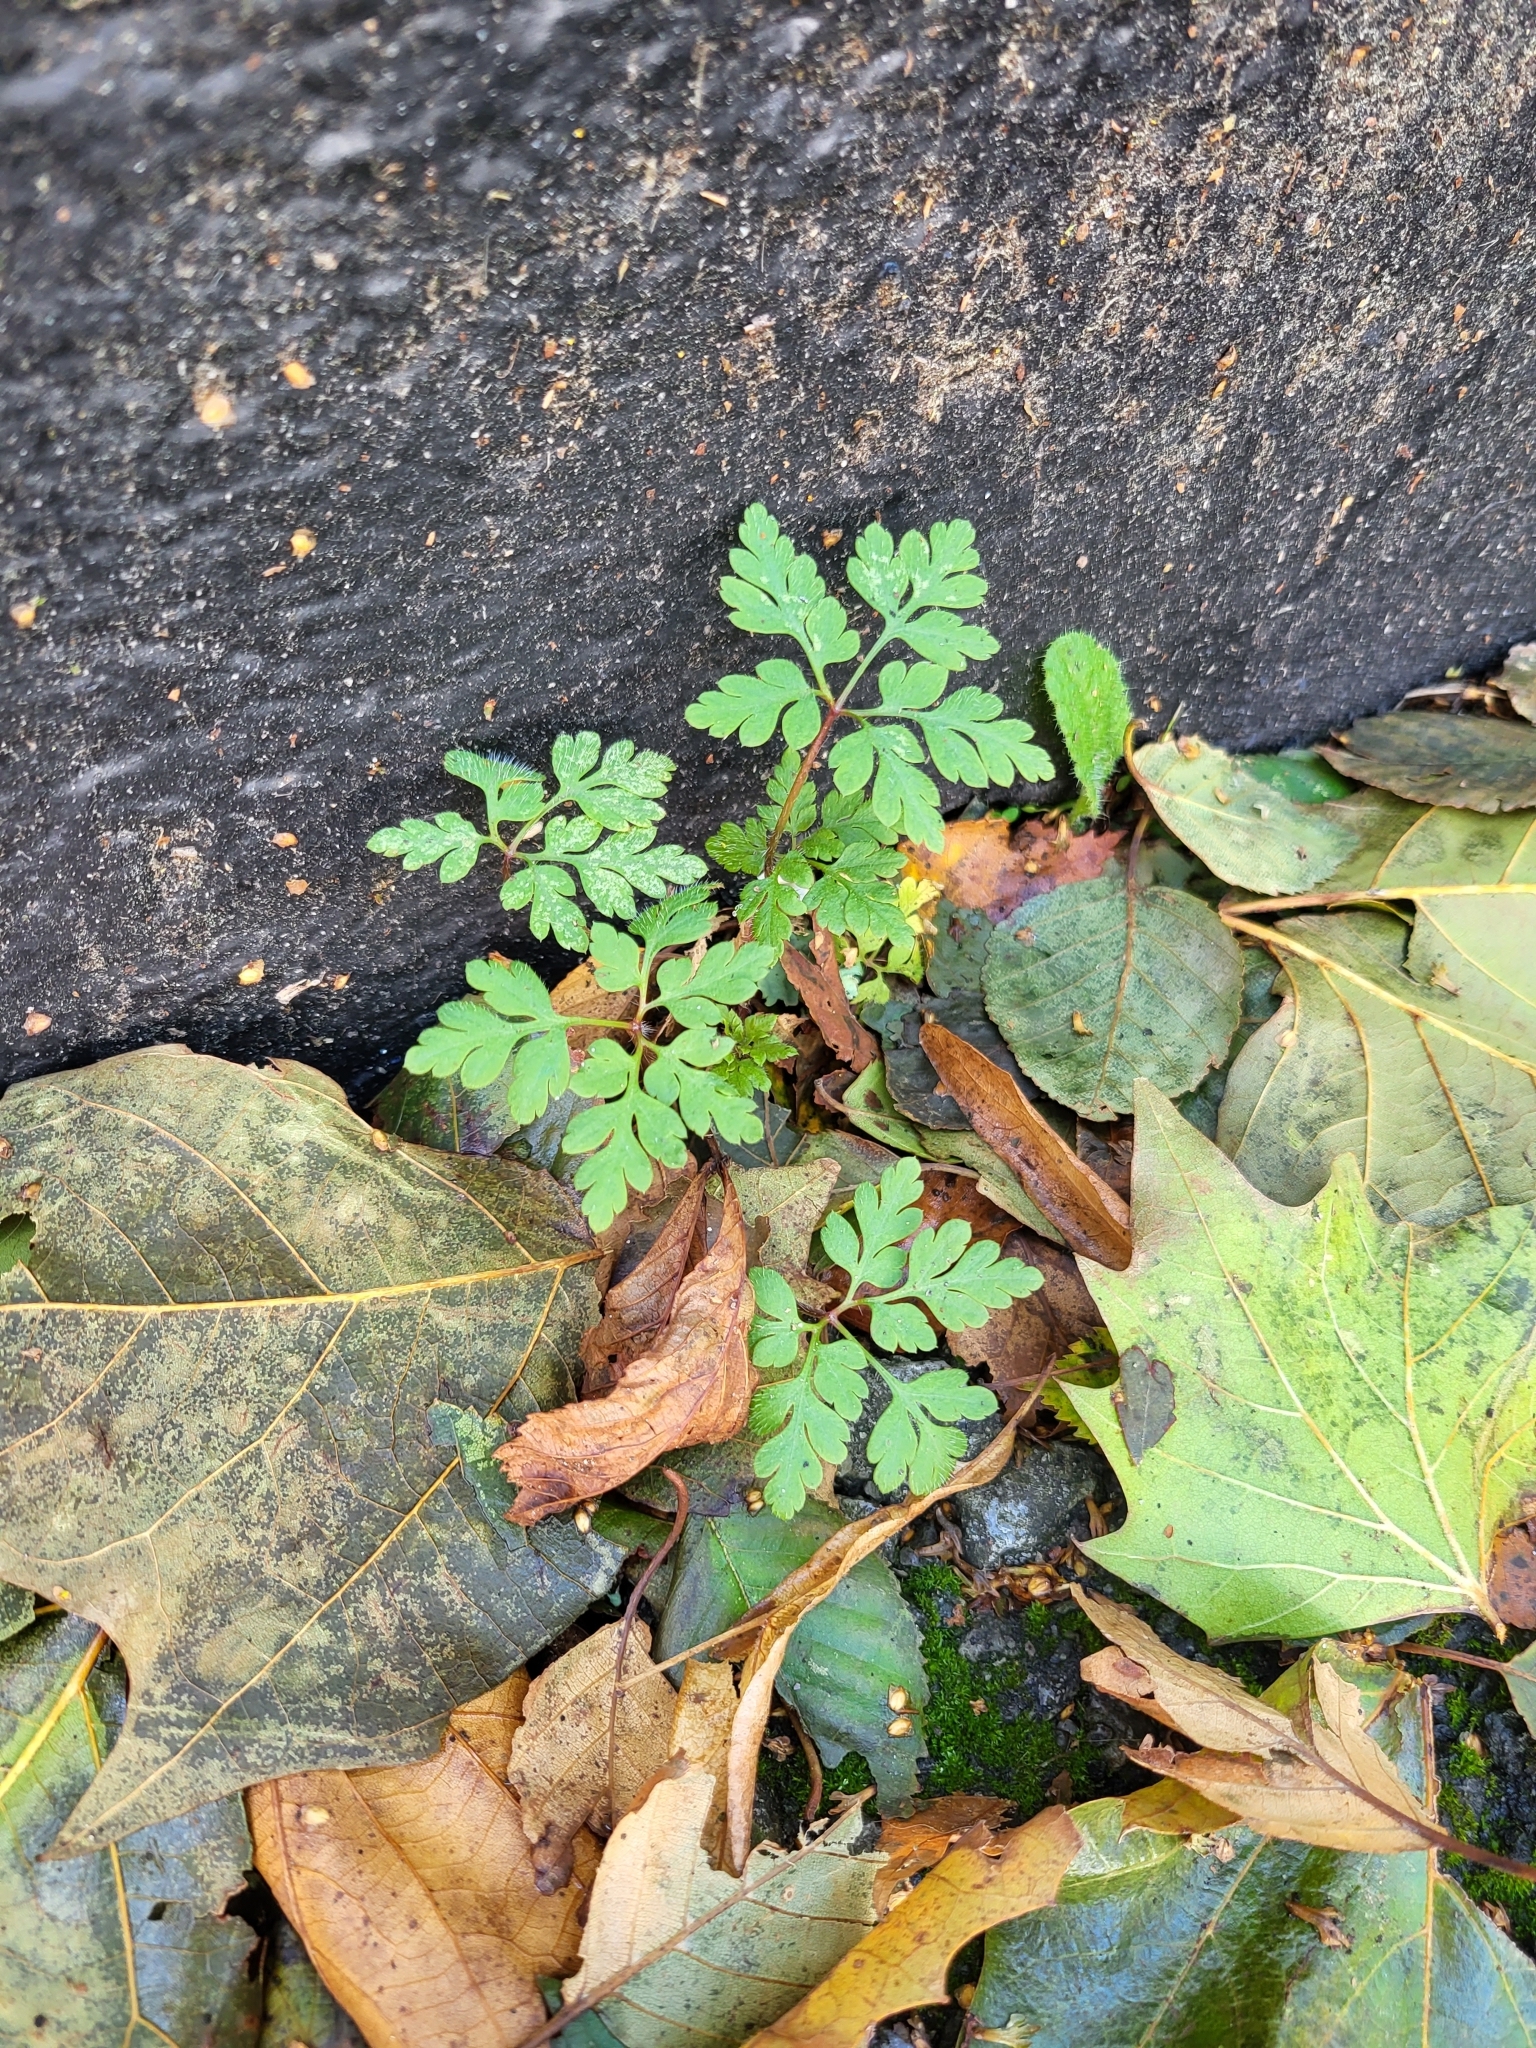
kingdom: Plantae
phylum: Tracheophyta
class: Magnoliopsida
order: Geraniales
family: Geraniaceae
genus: Geranium
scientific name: Geranium robertianum
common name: Herb-robert
